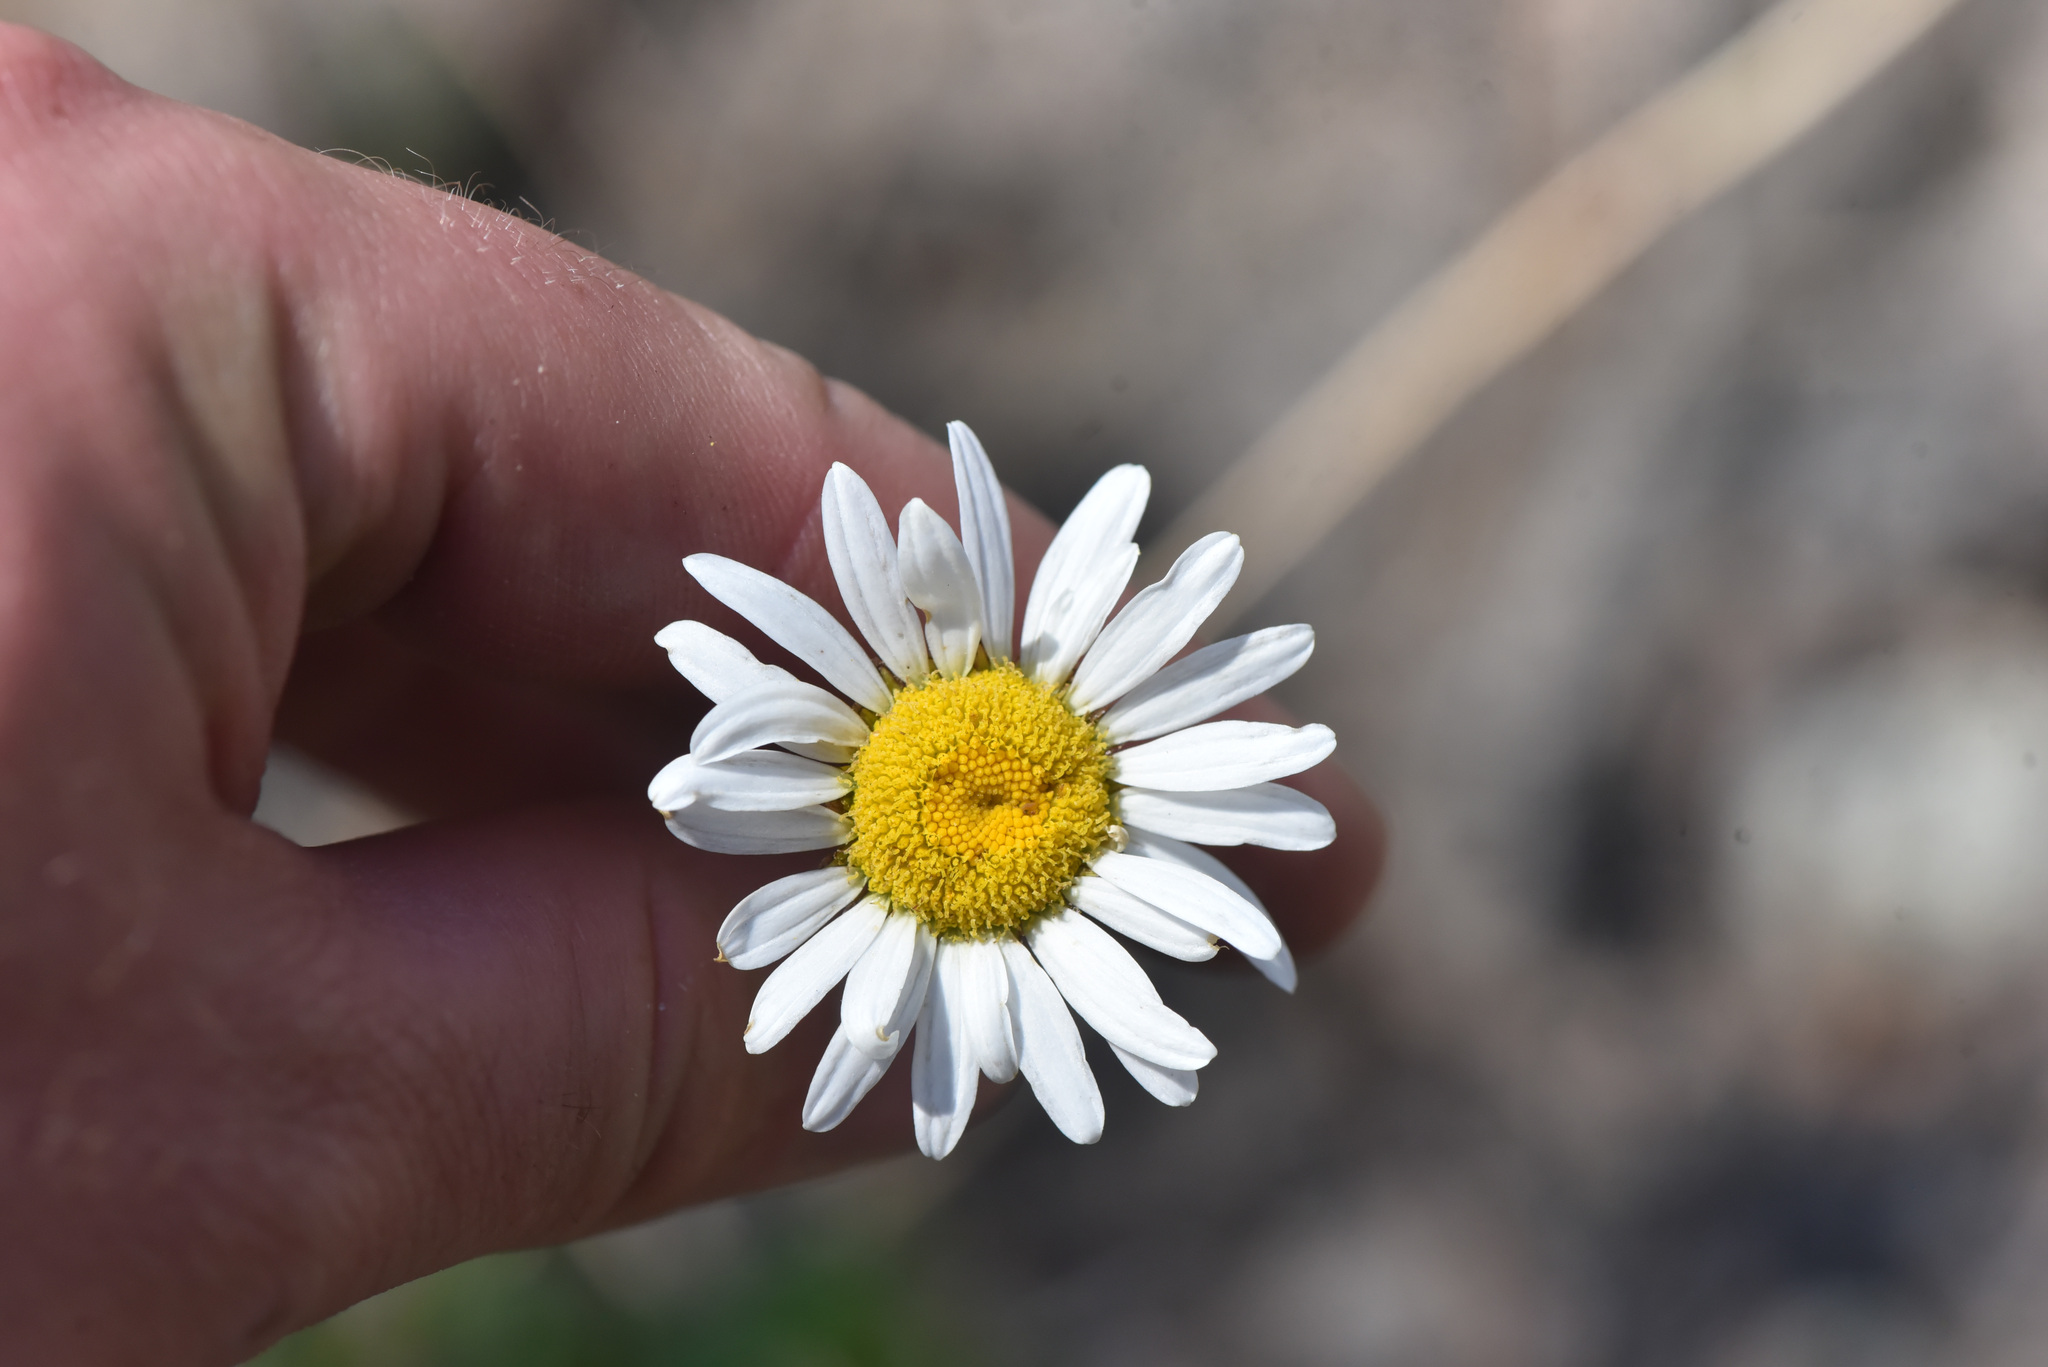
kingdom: Plantae
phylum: Tracheophyta
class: Magnoliopsida
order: Asterales
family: Asteraceae
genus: Leucanthemum
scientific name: Leucanthemum vulgare
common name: Oxeye daisy
